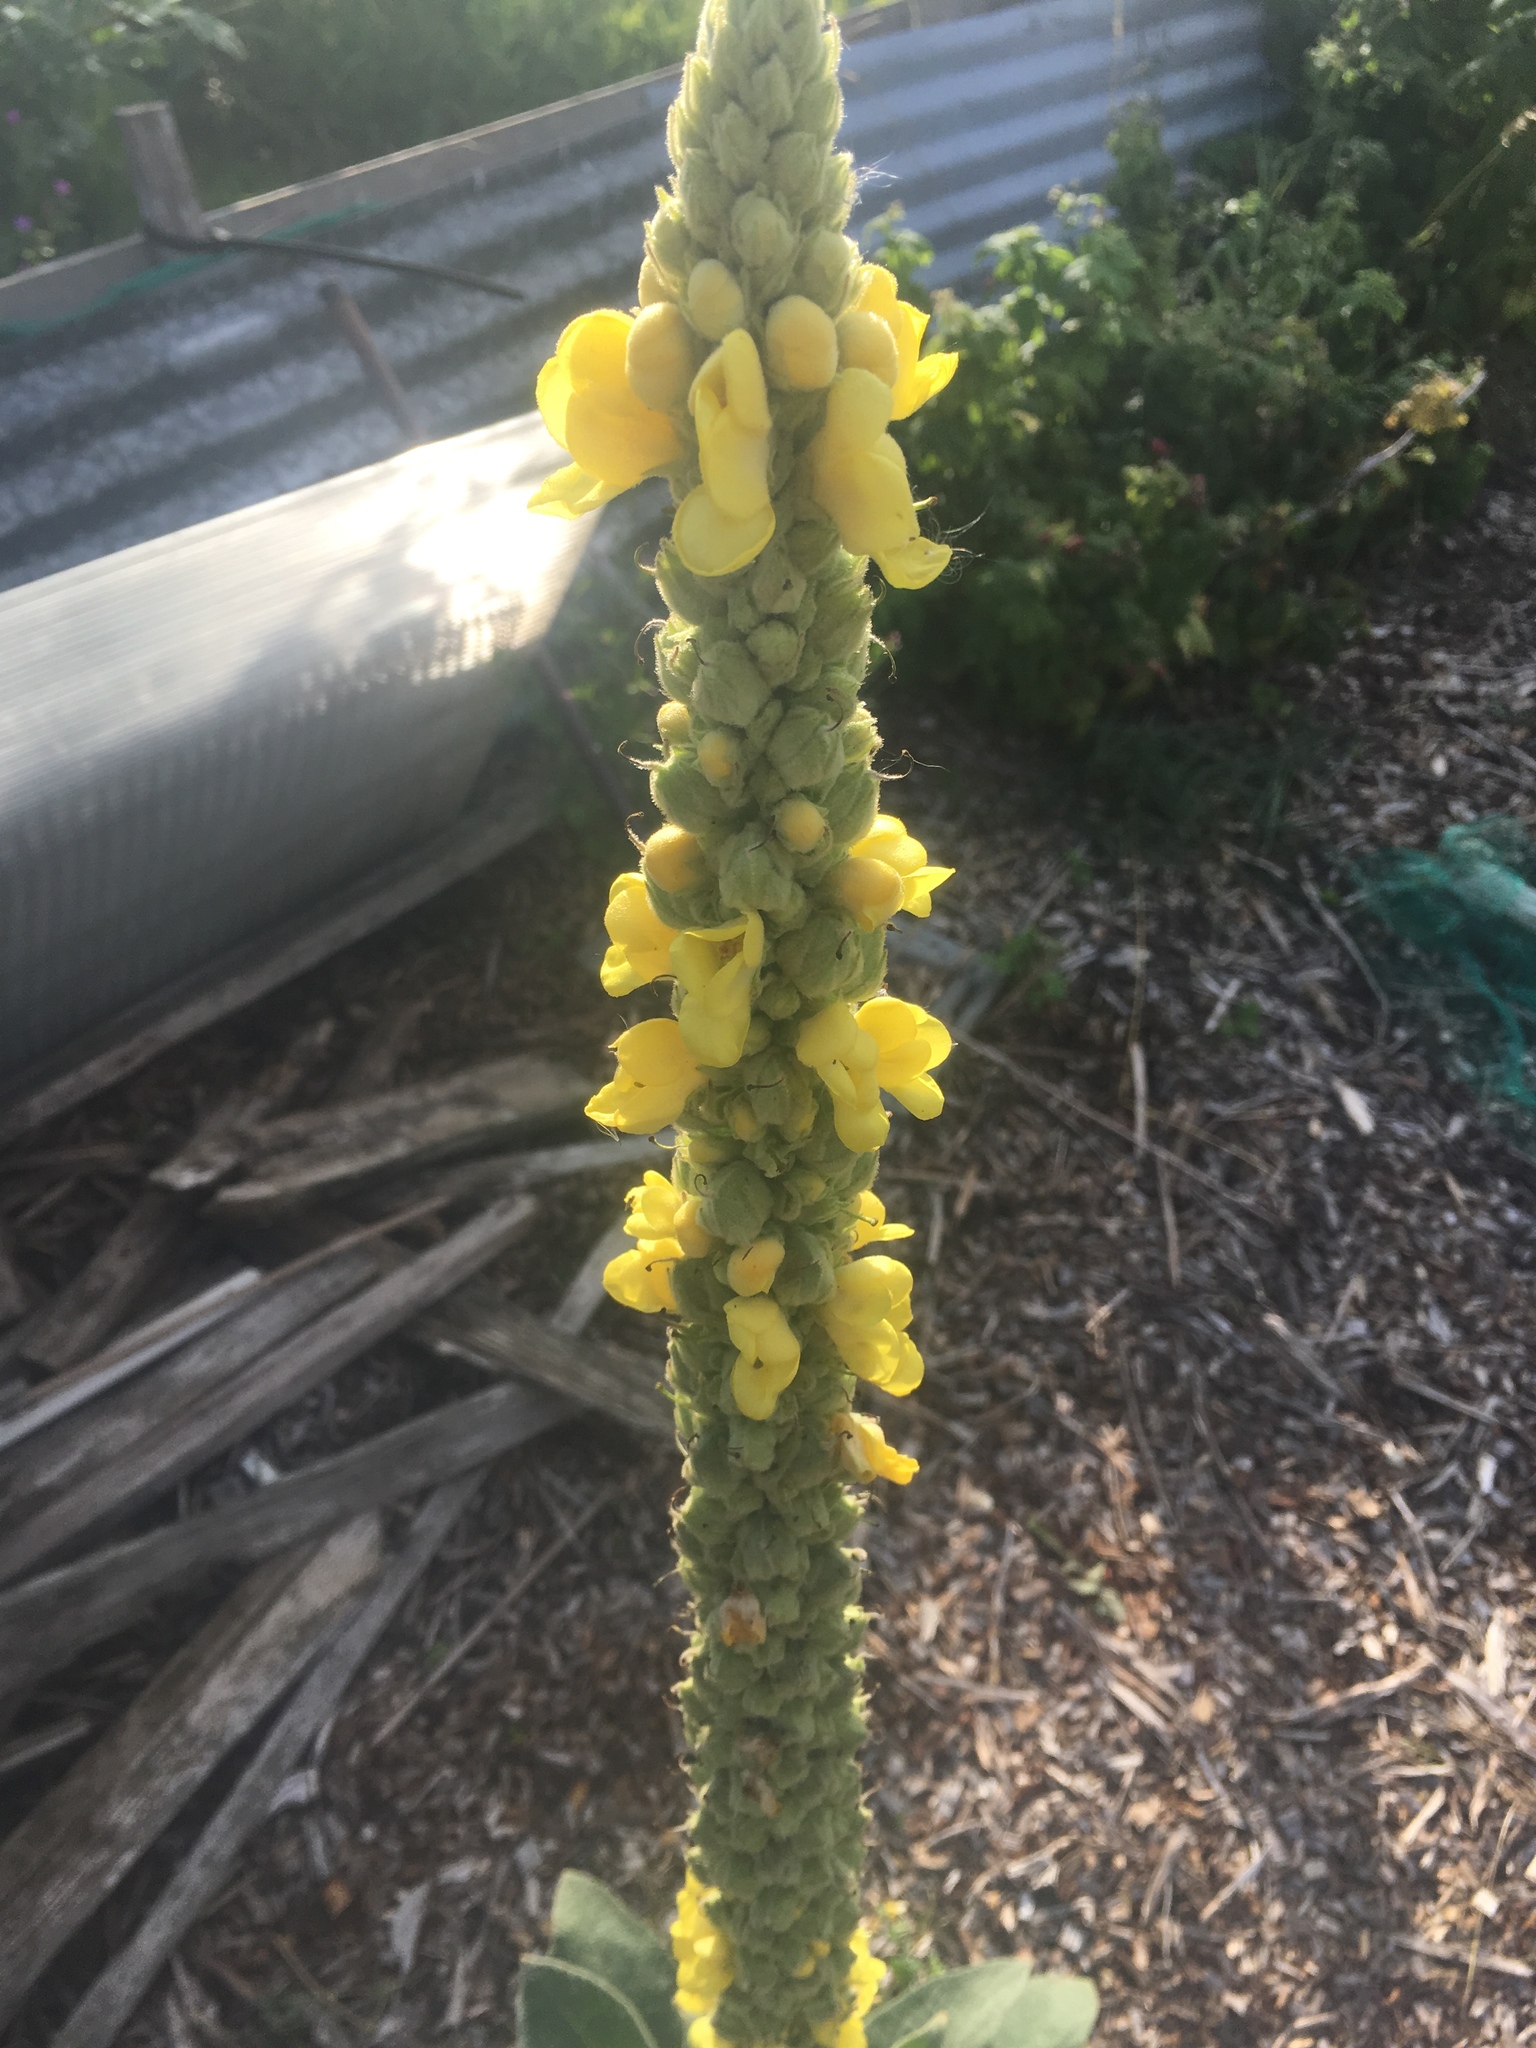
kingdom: Plantae
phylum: Tracheophyta
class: Magnoliopsida
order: Lamiales
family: Scrophulariaceae
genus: Verbascum
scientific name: Verbascum thapsus
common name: Common mullein
